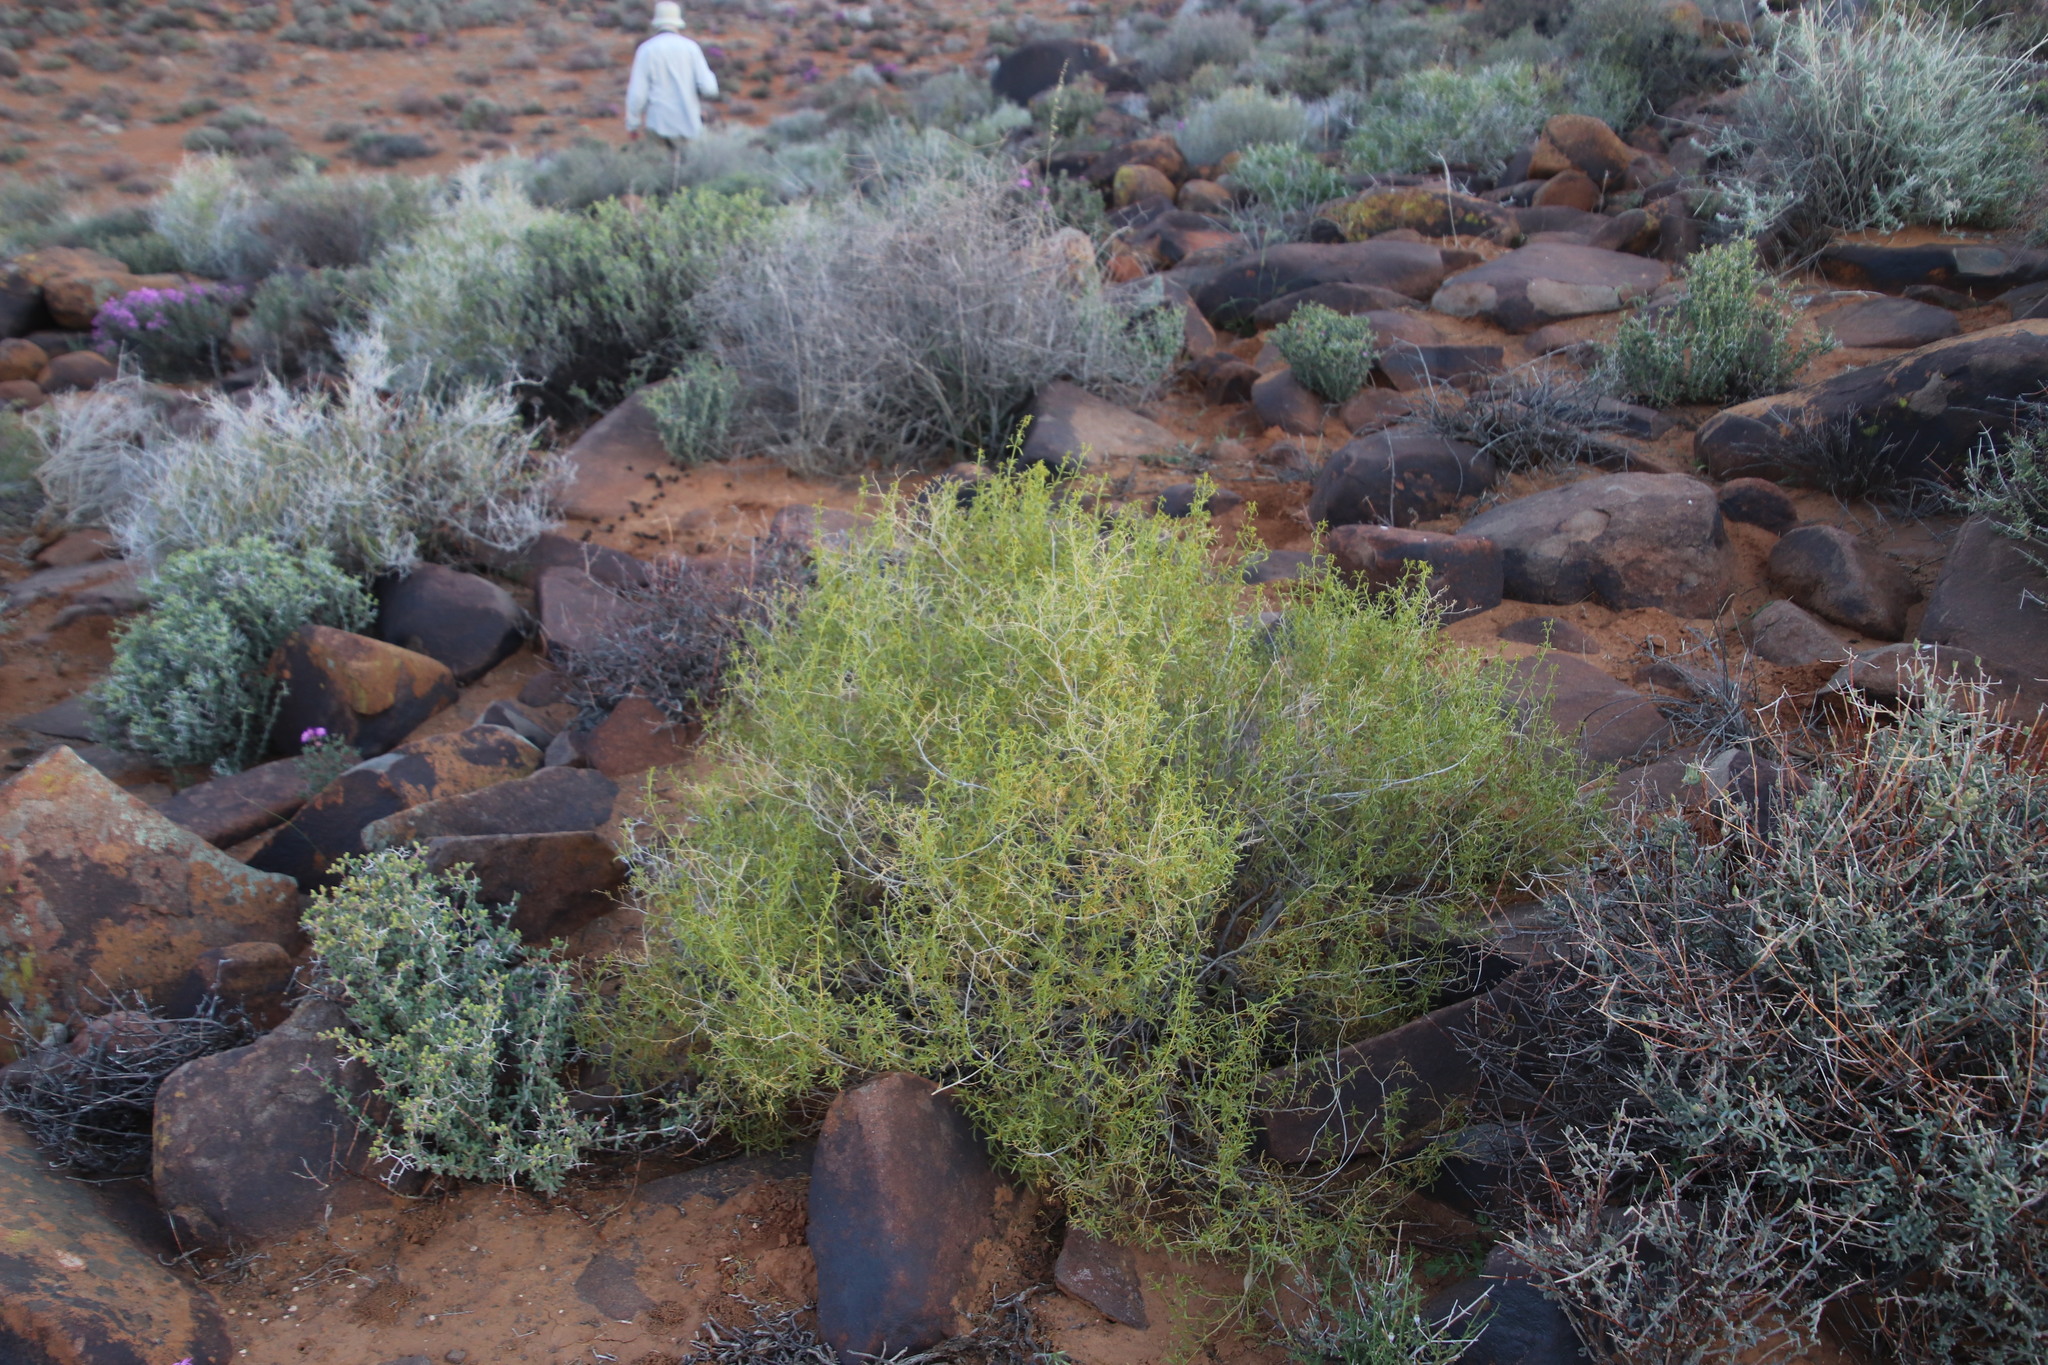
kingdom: Plantae
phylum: Tracheophyta
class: Magnoliopsida
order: Caryophyllales
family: Aizoaceae
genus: Aizoon
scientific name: Aizoon africanum
